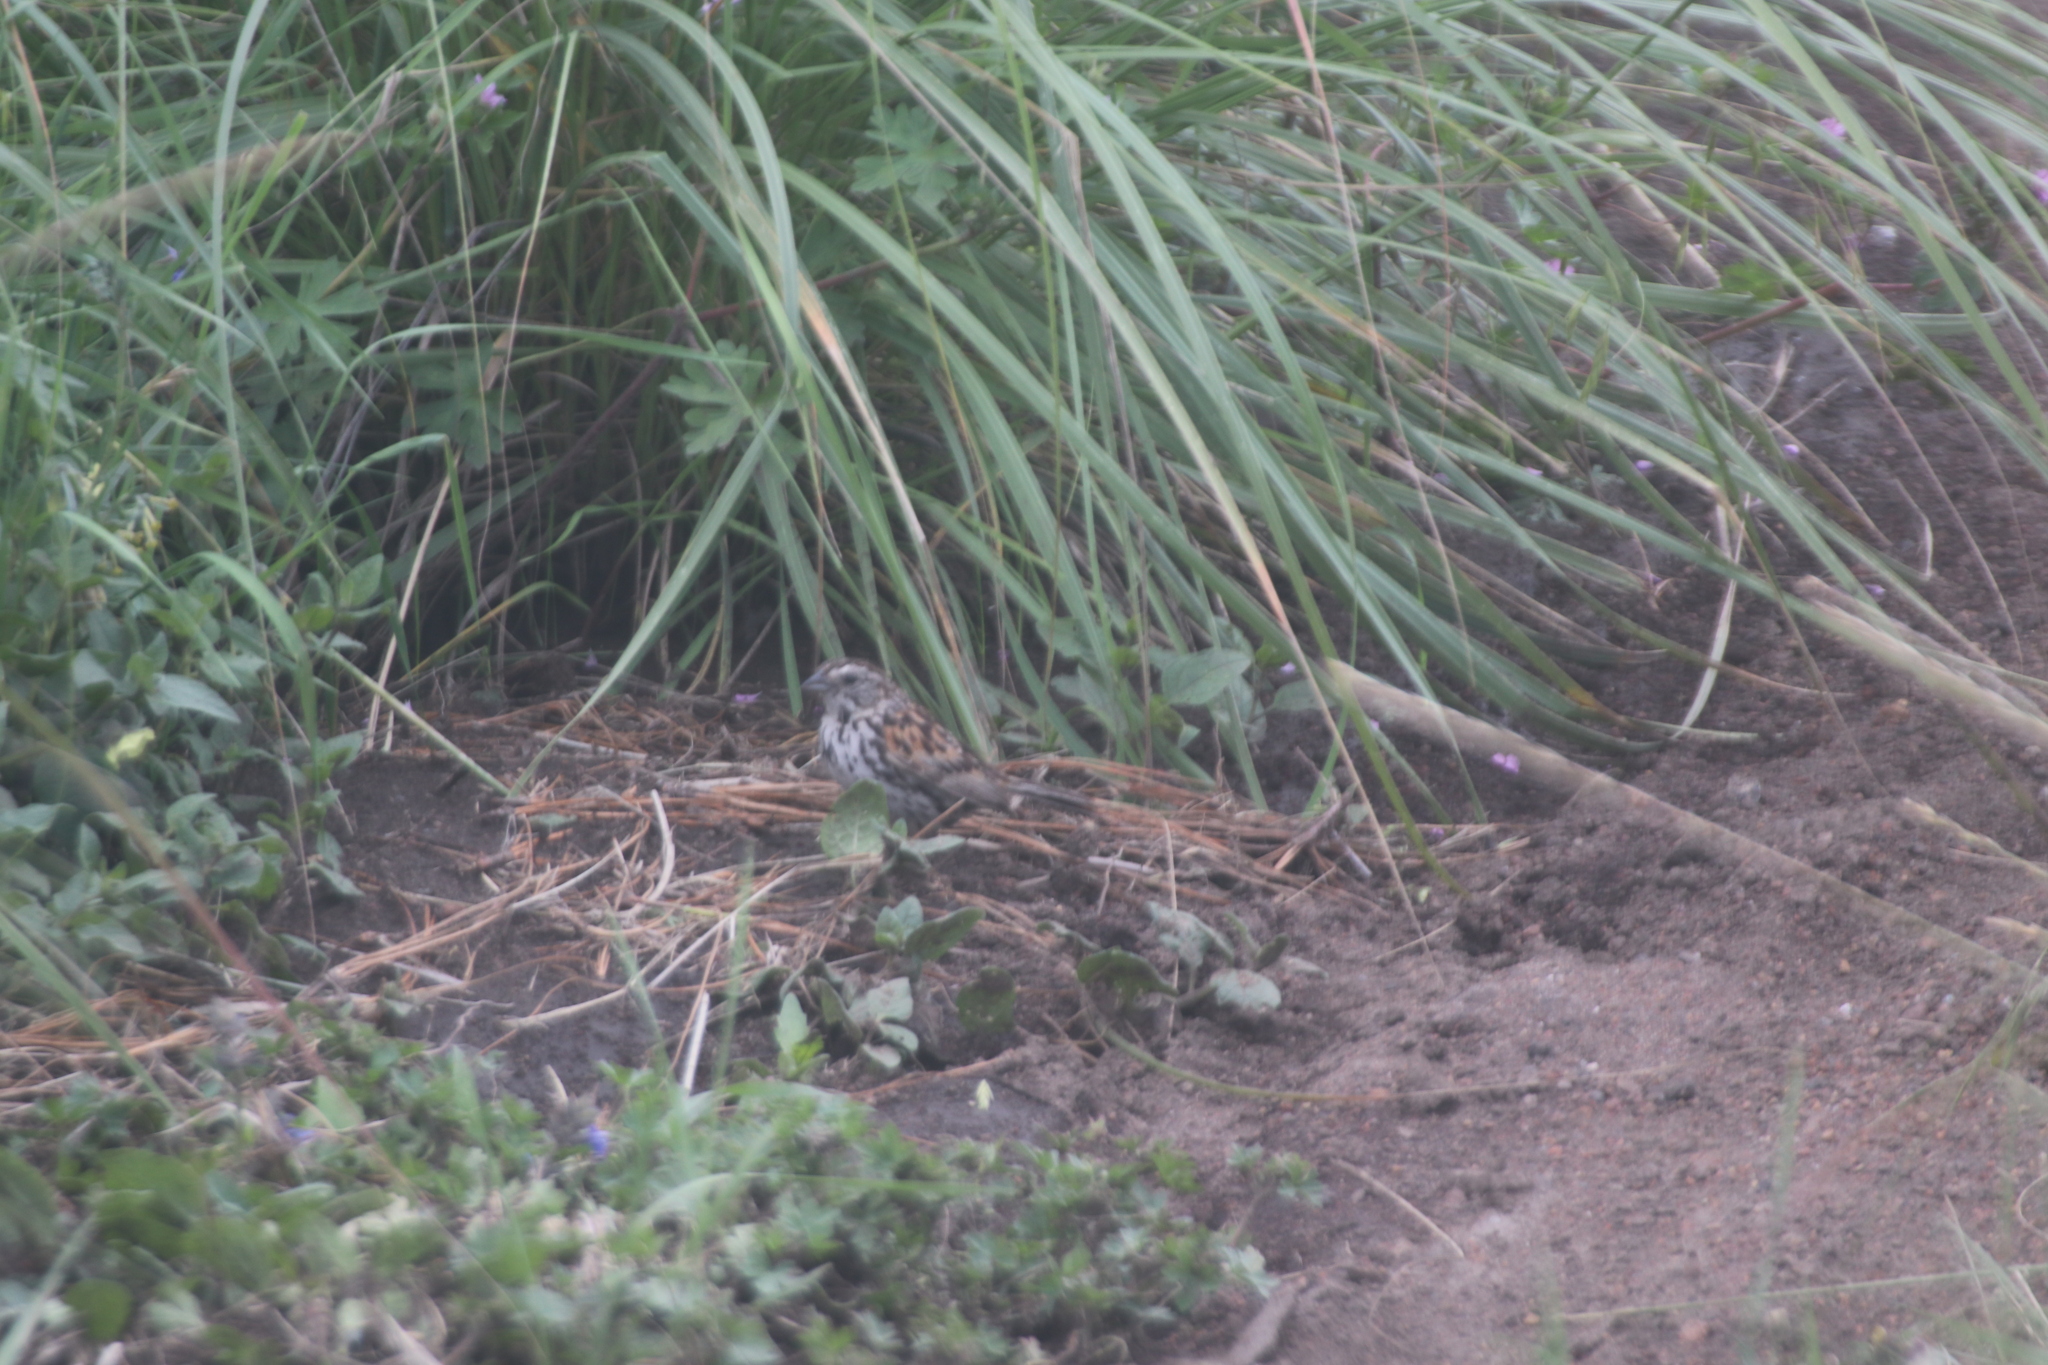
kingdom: Animalia
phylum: Chordata
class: Aves
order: Passeriformes
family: Passerellidae
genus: Xenospiza
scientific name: Xenospiza baileyi
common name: Sierra madre sparrow
